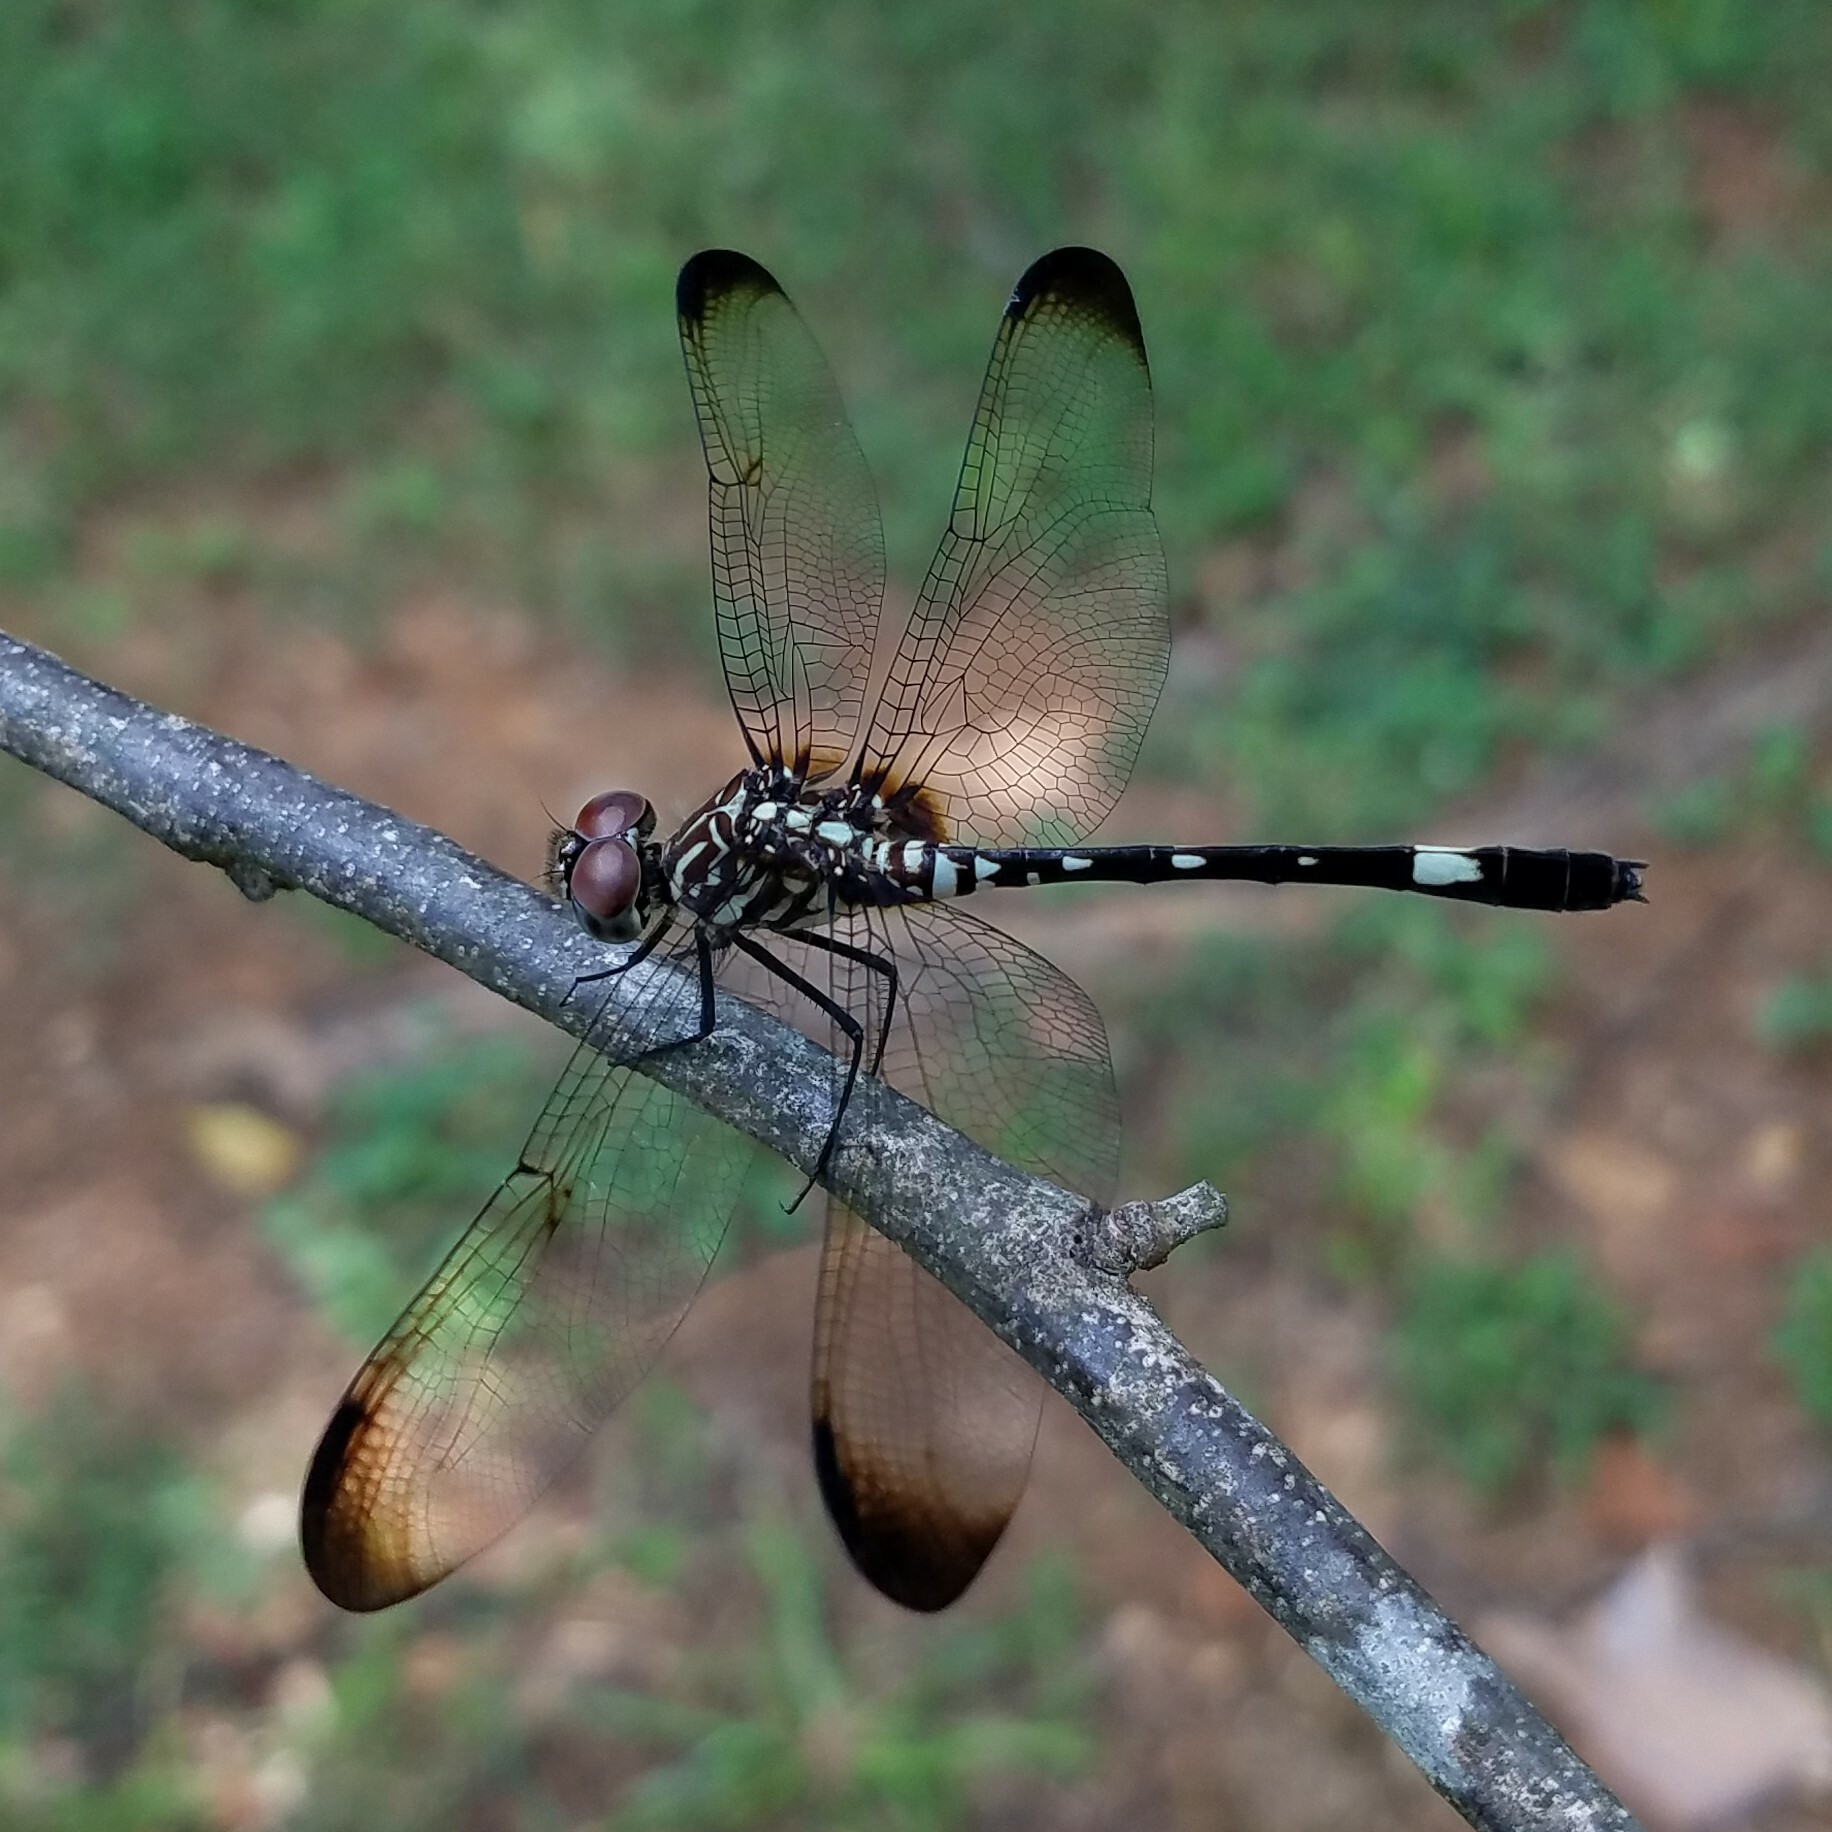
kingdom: Animalia
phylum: Arthropoda
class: Insecta
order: Odonata
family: Libellulidae
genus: Dythemis
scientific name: Dythemis velox
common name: Swift setwing
